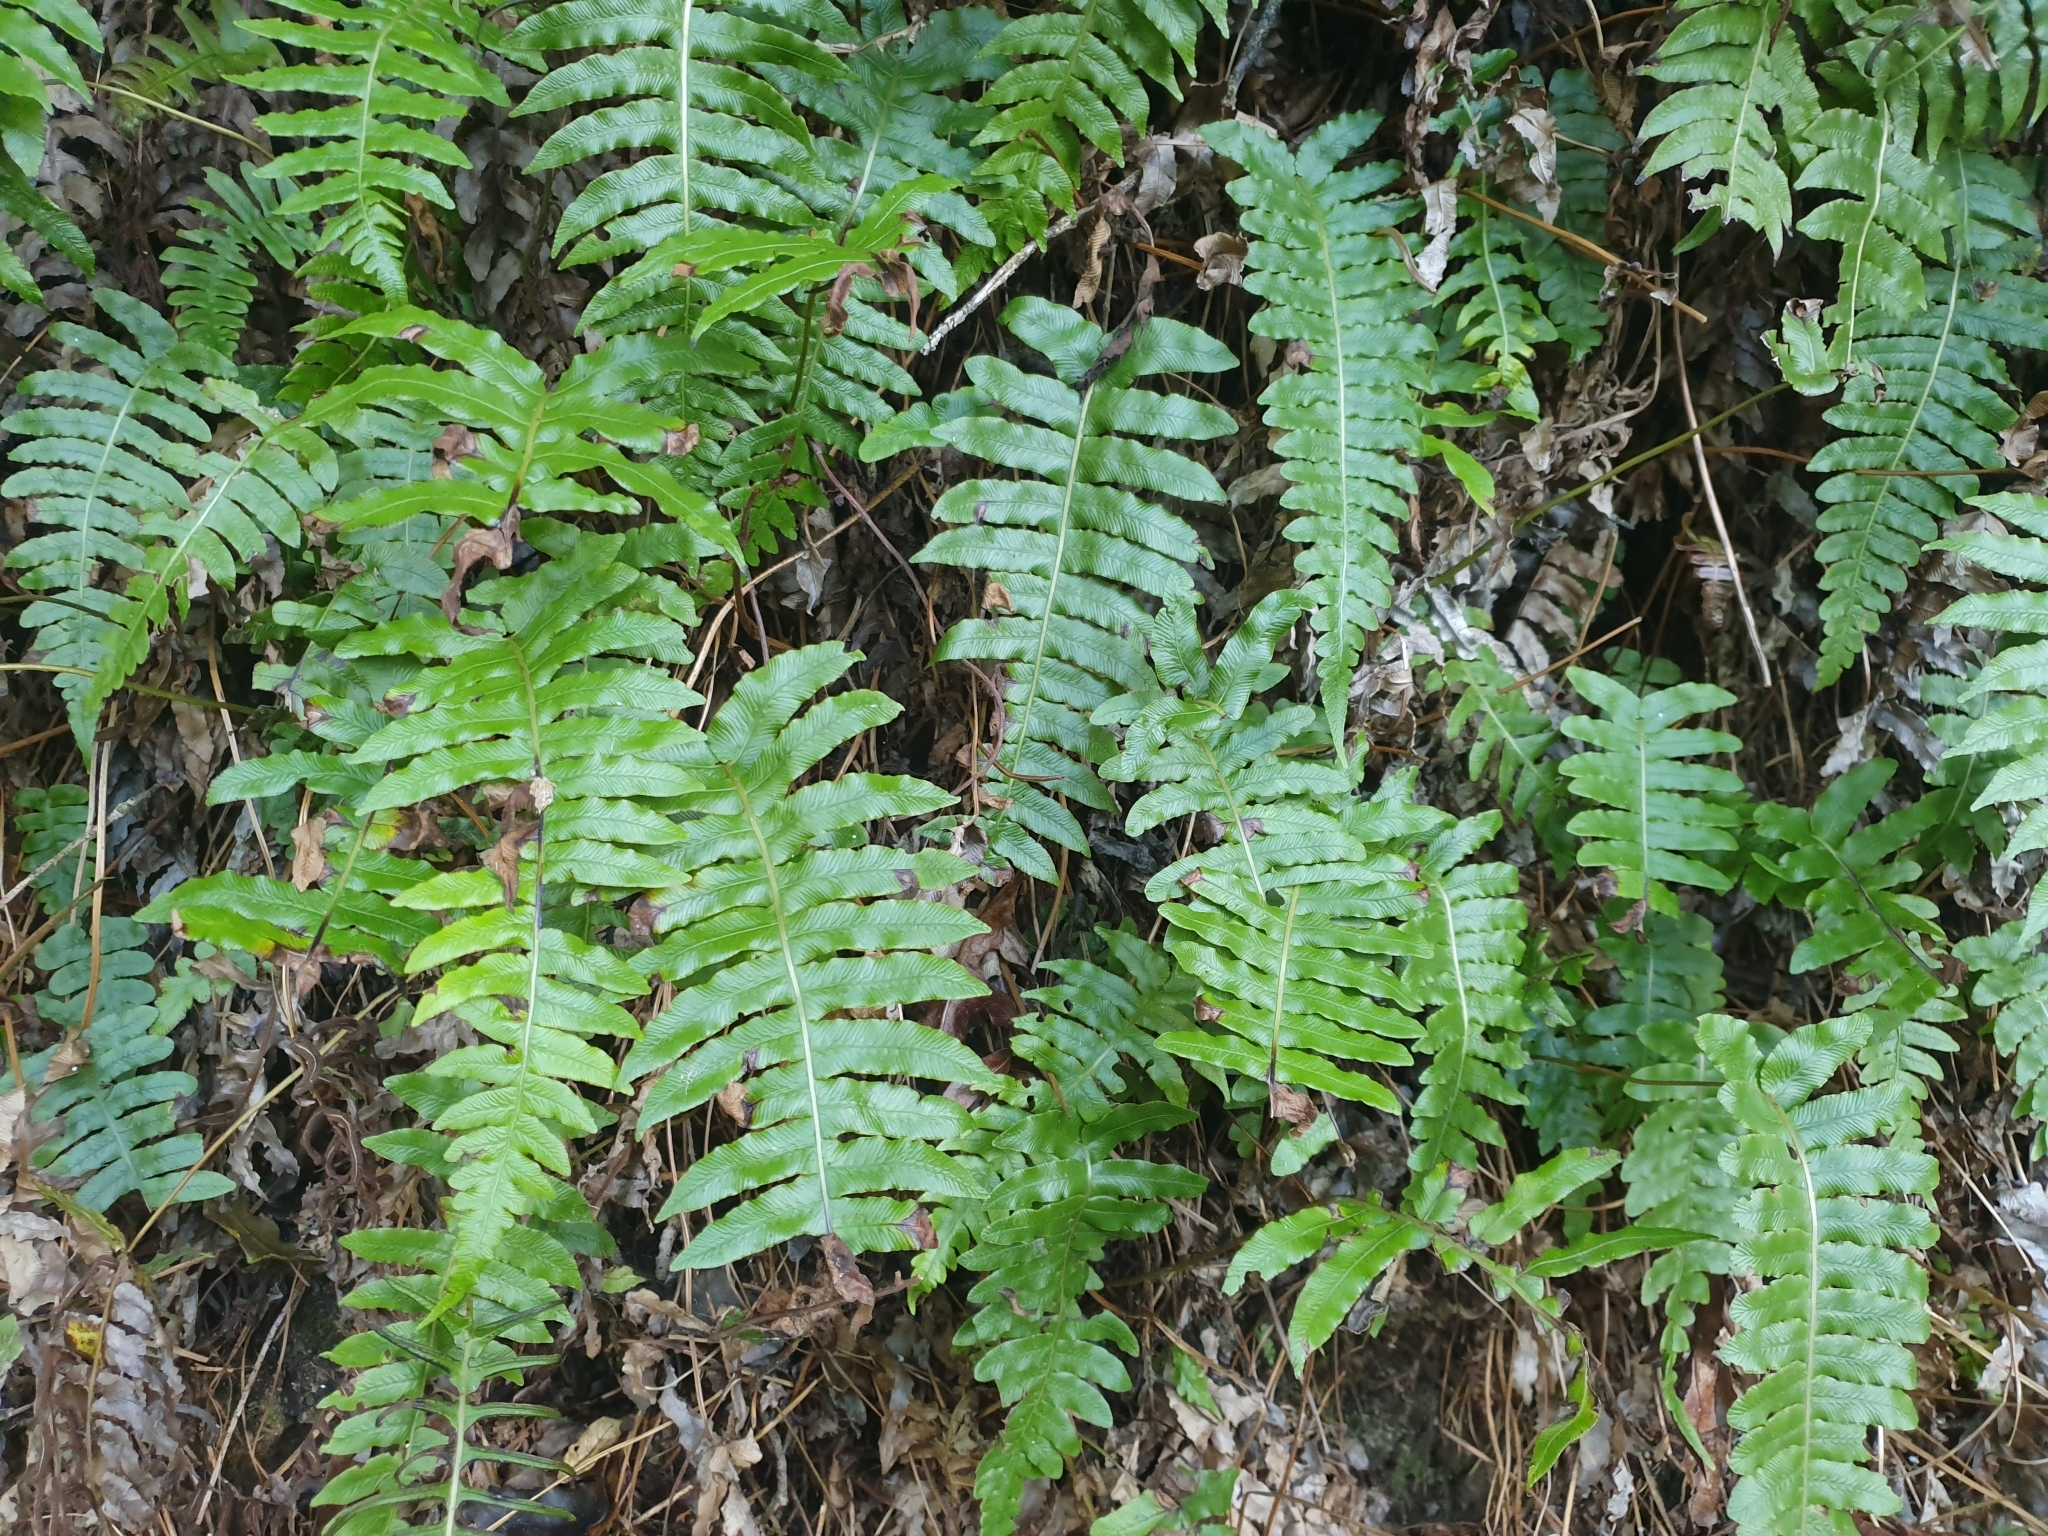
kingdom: Plantae
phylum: Tracheophyta
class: Polypodiopsida
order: Polypodiales
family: Blechnaceae
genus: Cranfillia
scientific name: Cranfillia deltoides
